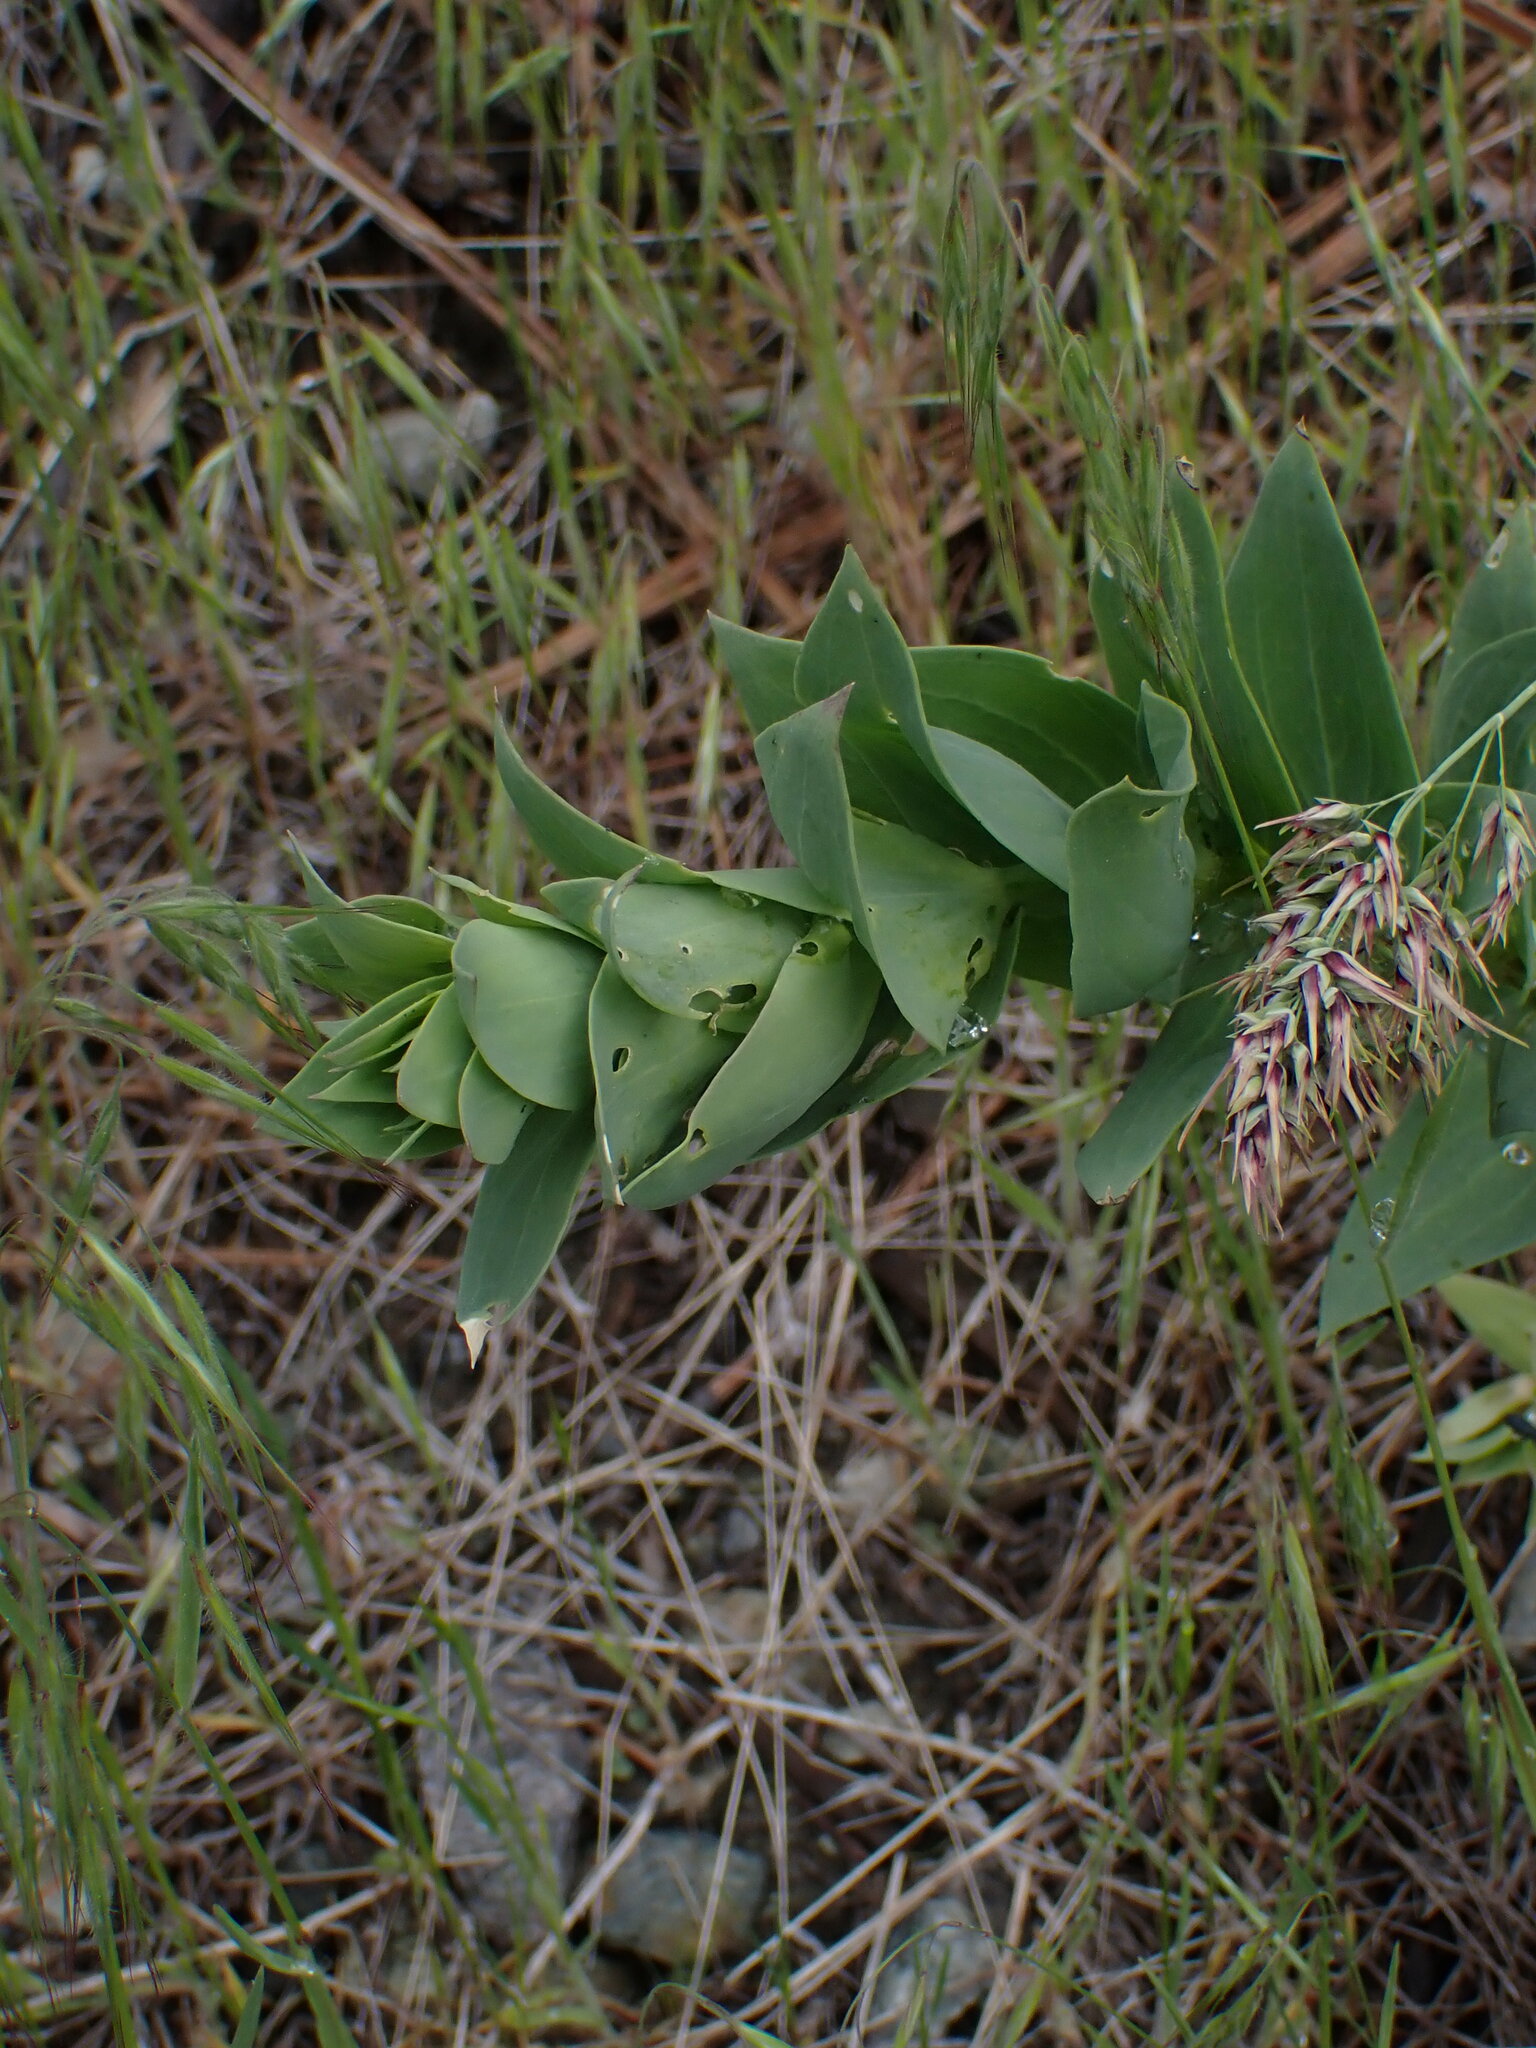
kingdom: Plantae
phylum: Tracheophyta
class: Magnoliopsida
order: Lamiales
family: Plantaginaceae
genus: Linaria
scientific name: Linaria dalmatica
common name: Dalmatian toadflax
